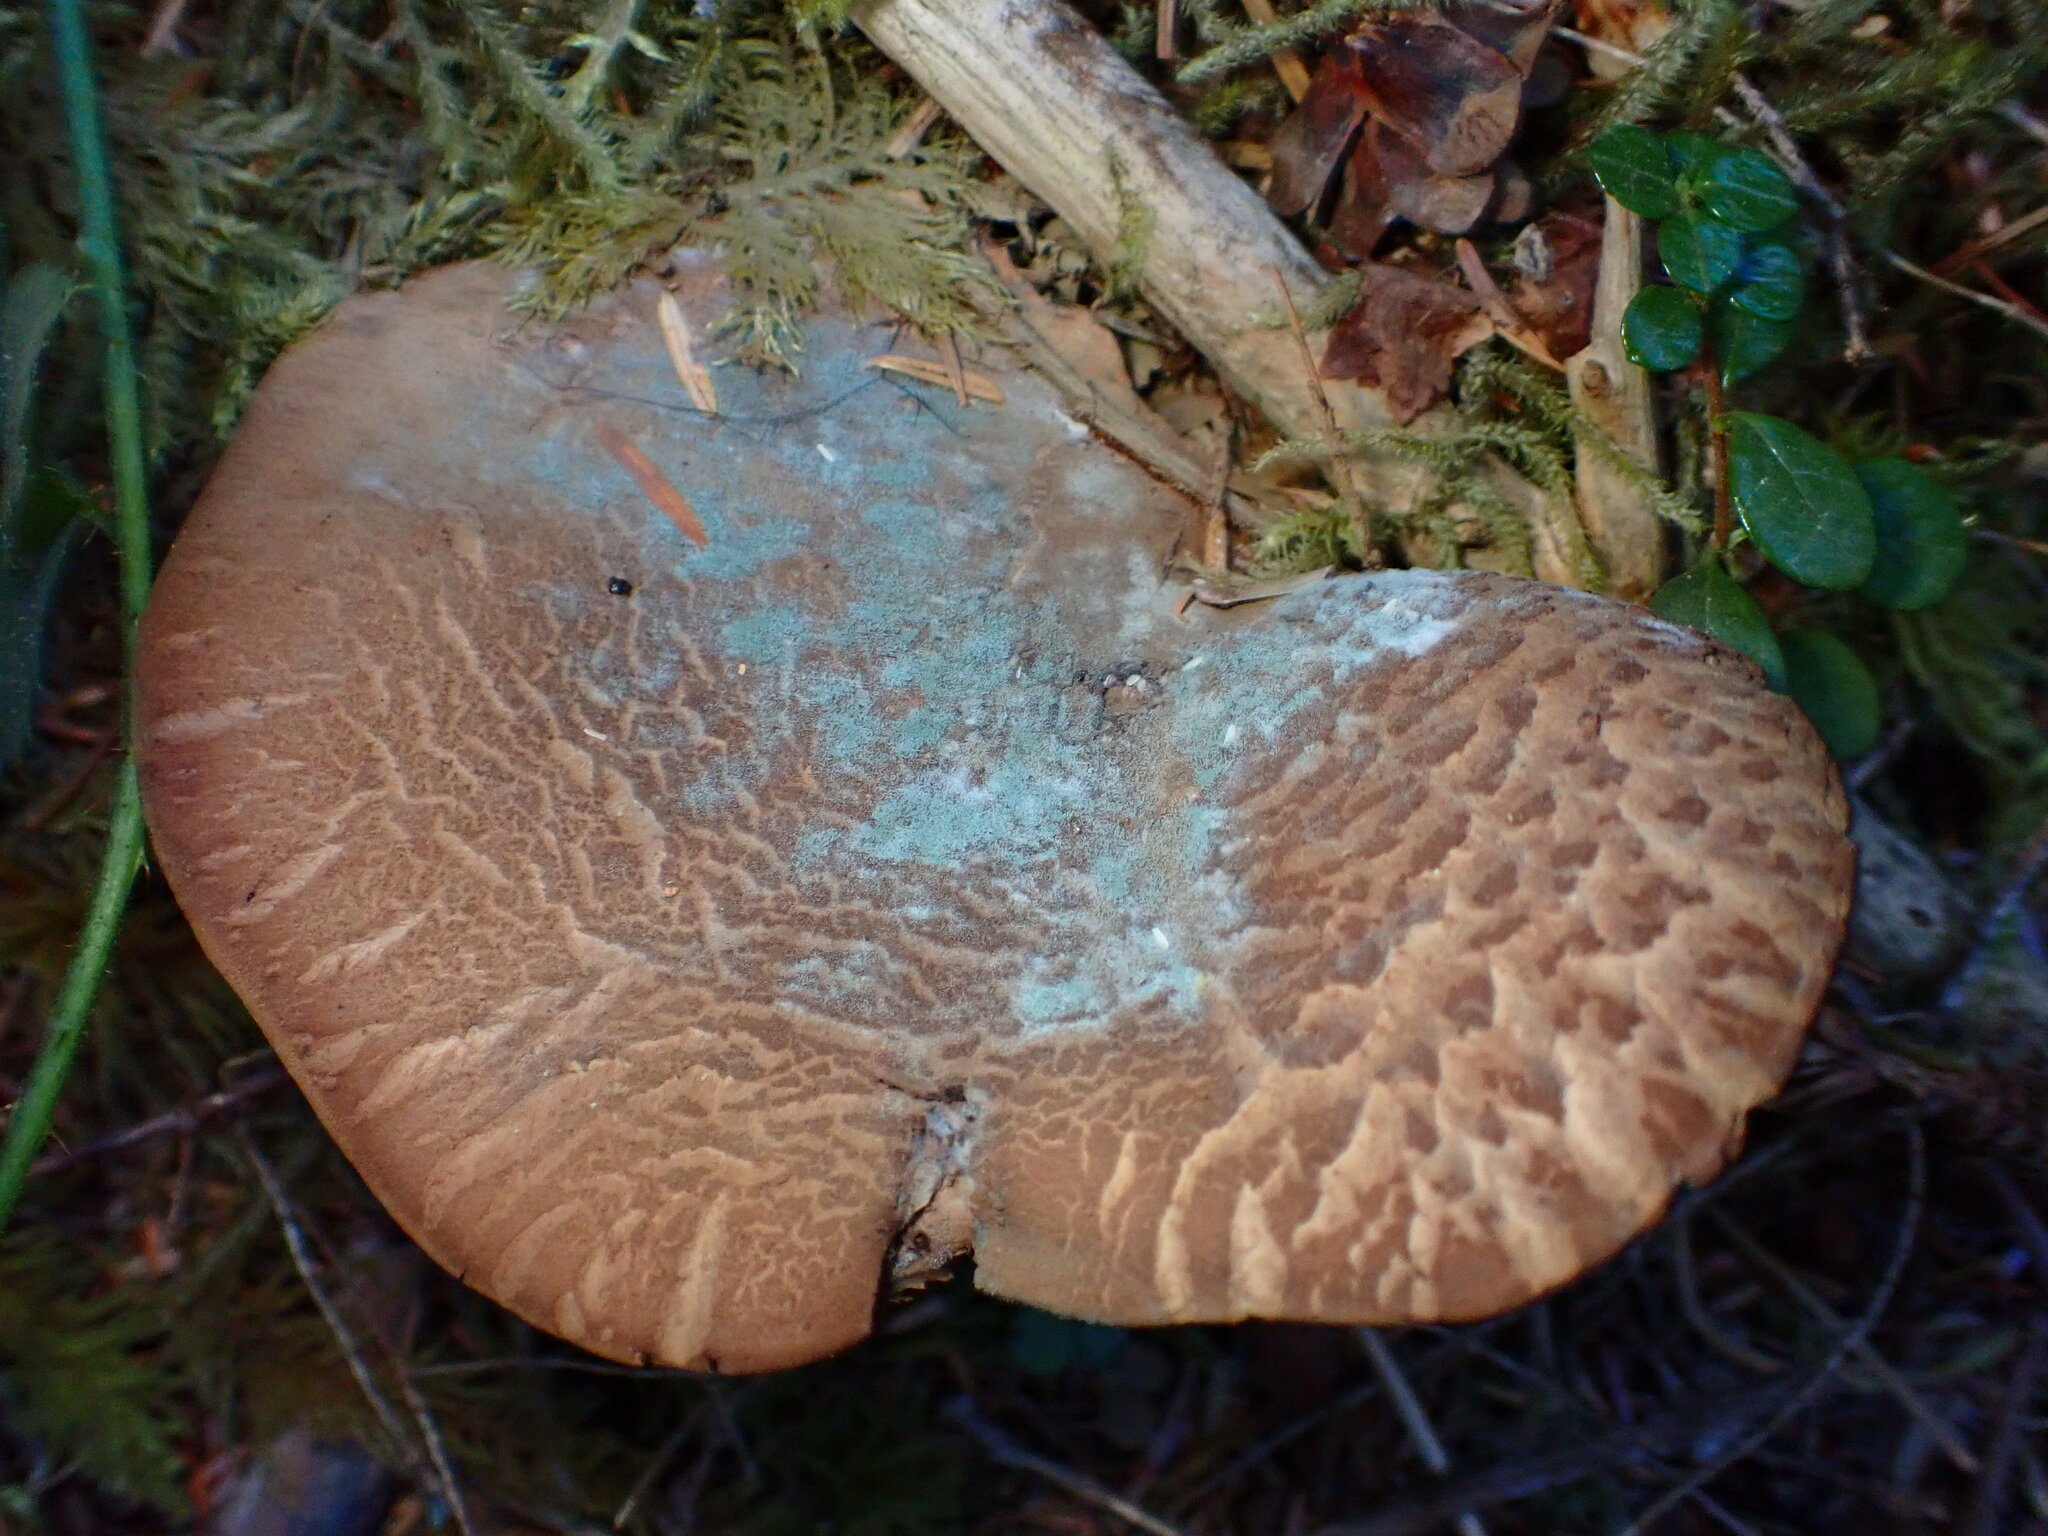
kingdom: Fungi
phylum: Basidiomycota
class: Agaricomycetes
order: Boletales
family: Tapinellaceae
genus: Tapinella
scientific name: Tapinella atrotomentosa
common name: Velvet rollrim
